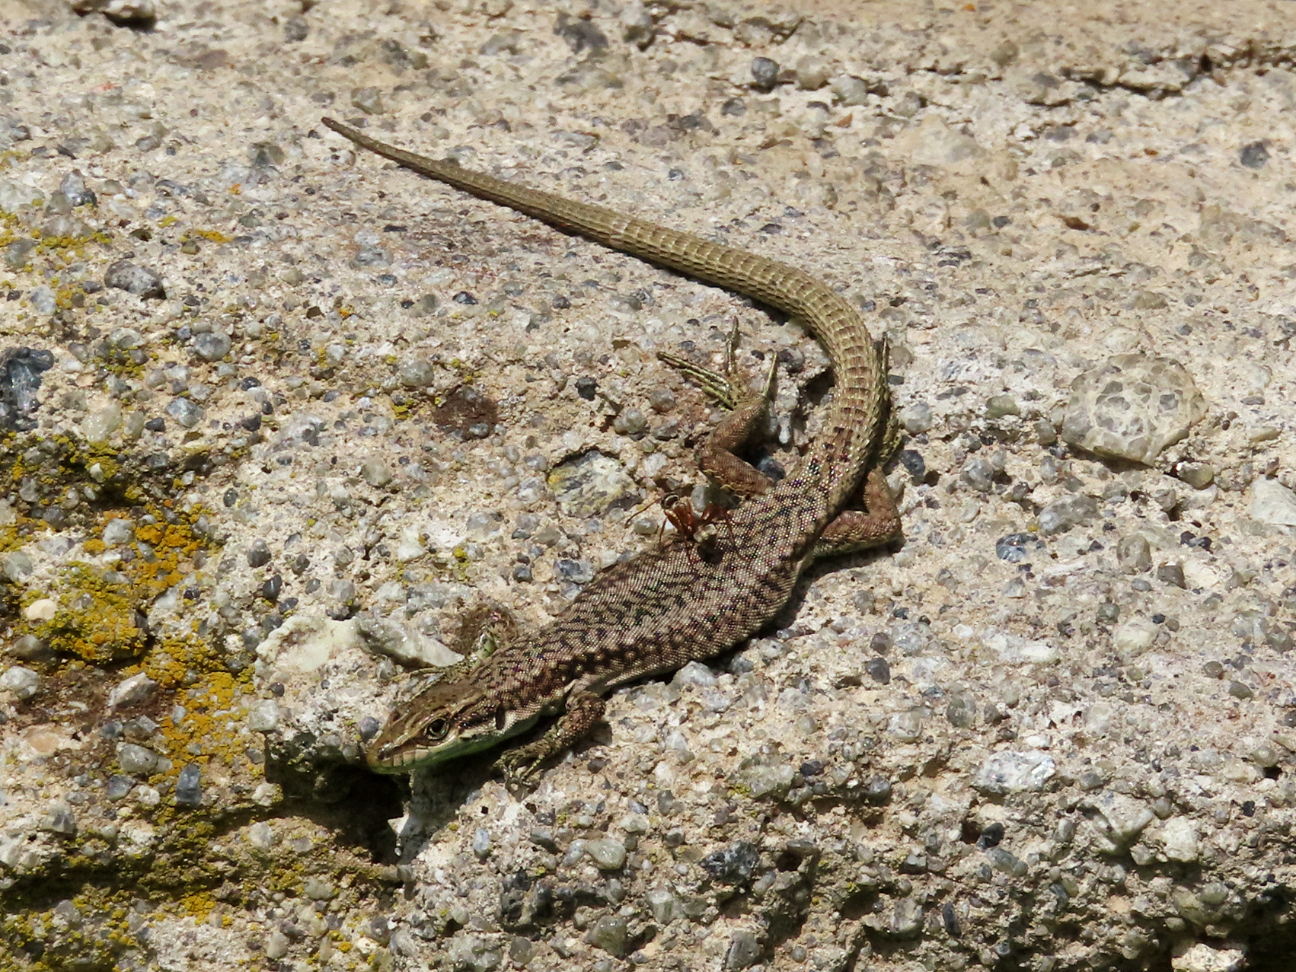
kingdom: Animalia
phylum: Chordata
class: Squamata
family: Lacertidae
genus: Darevskia
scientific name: Darevskia rostombekowi
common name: Rostombekow's lizard
